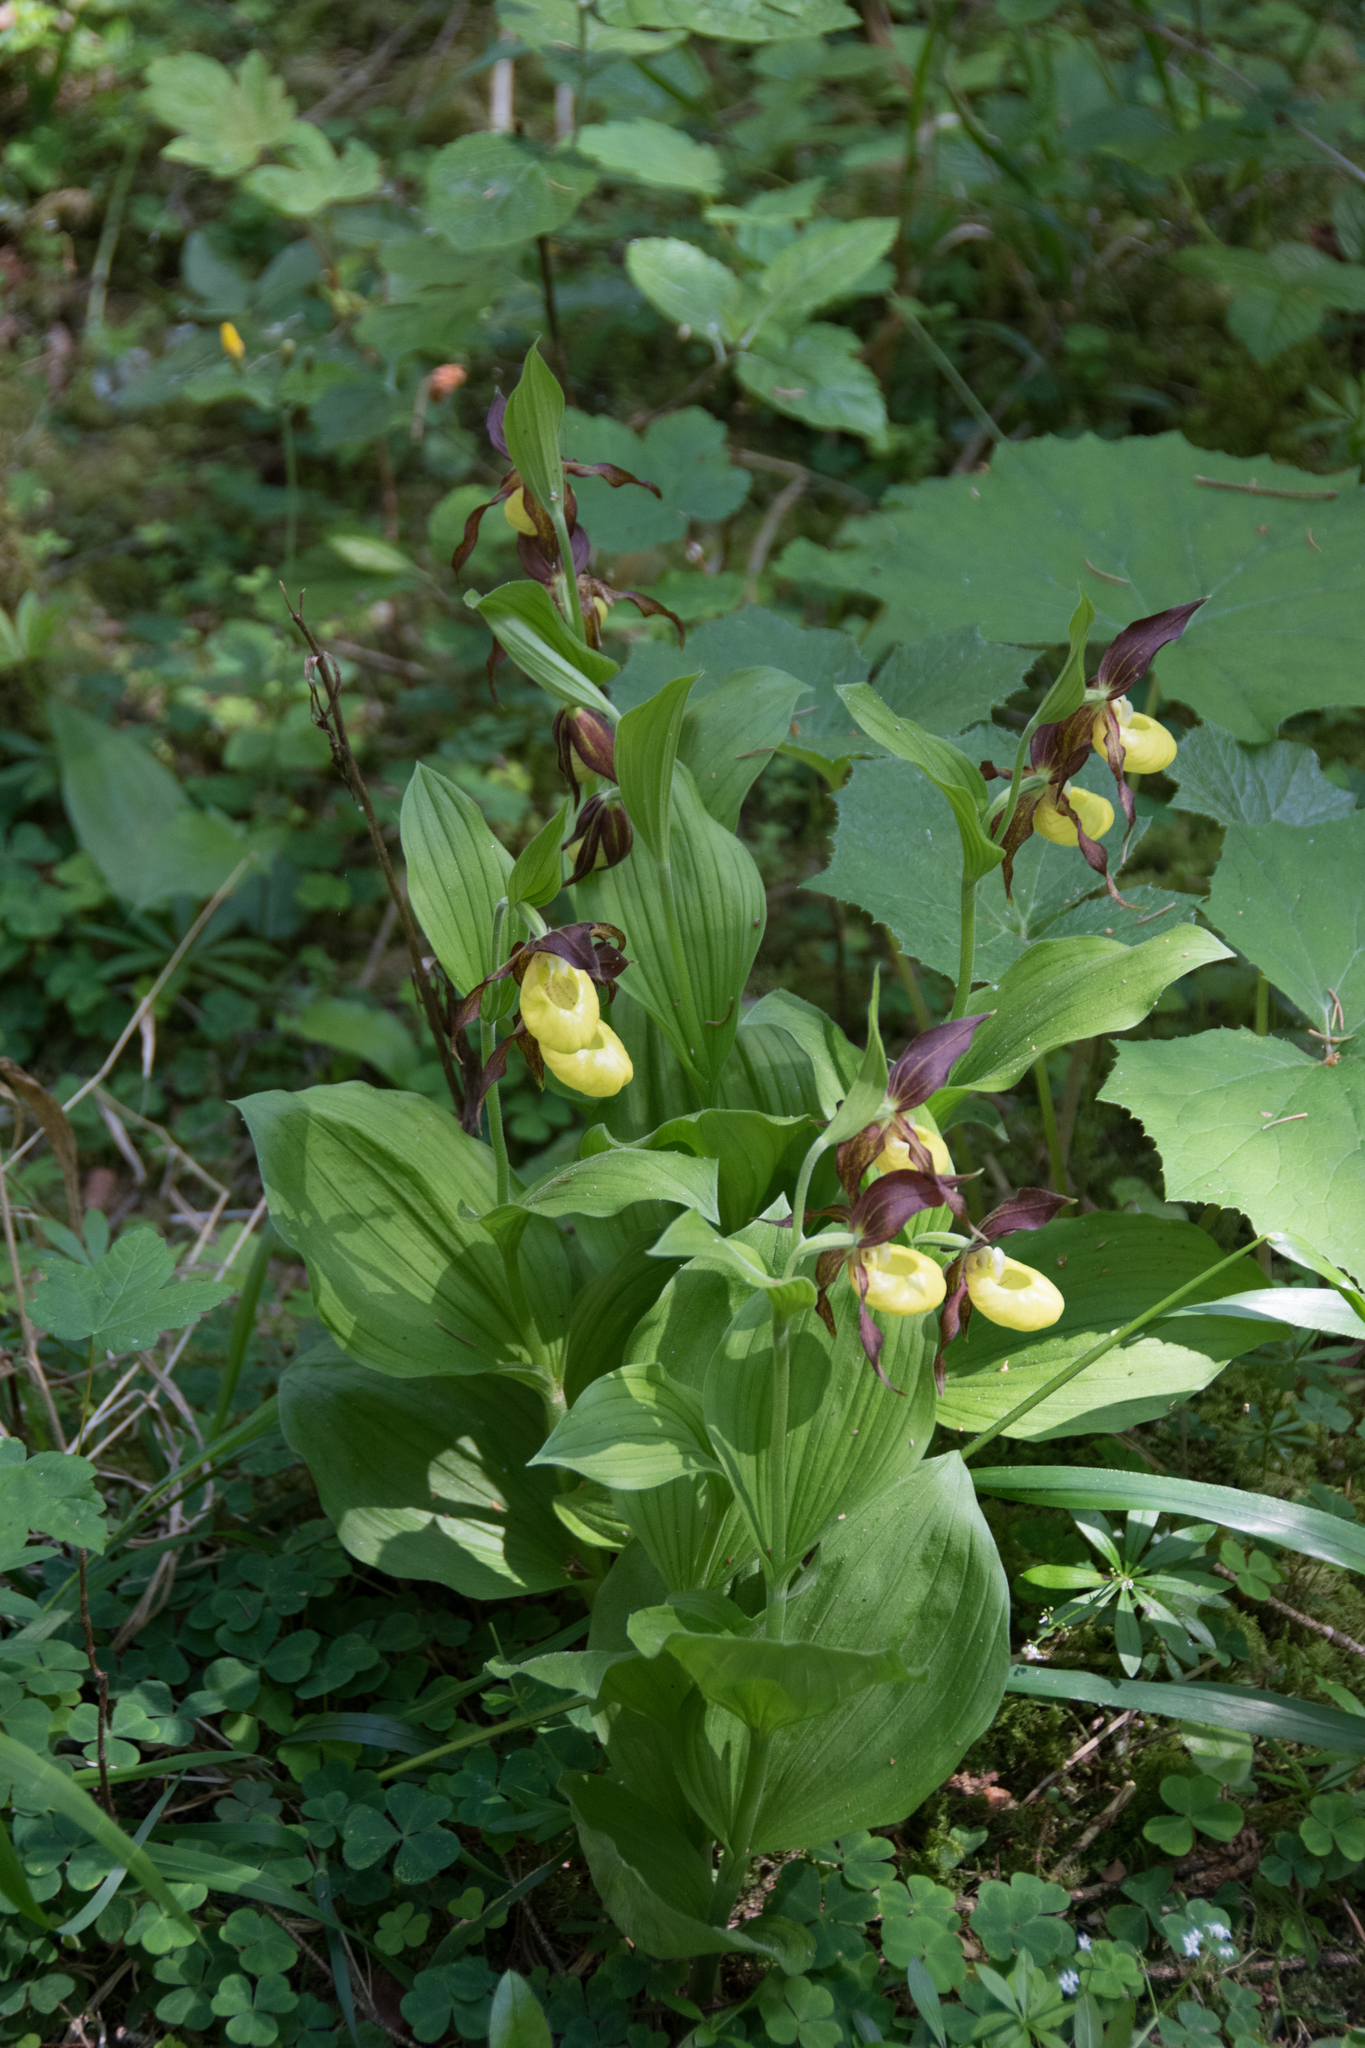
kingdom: Plantae
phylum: Tracheophyta
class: Liliopsida
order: Asparagales
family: Orchidaceae
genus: Cypripedium
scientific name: Cypripedium calceolus
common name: Lady's-slipper
